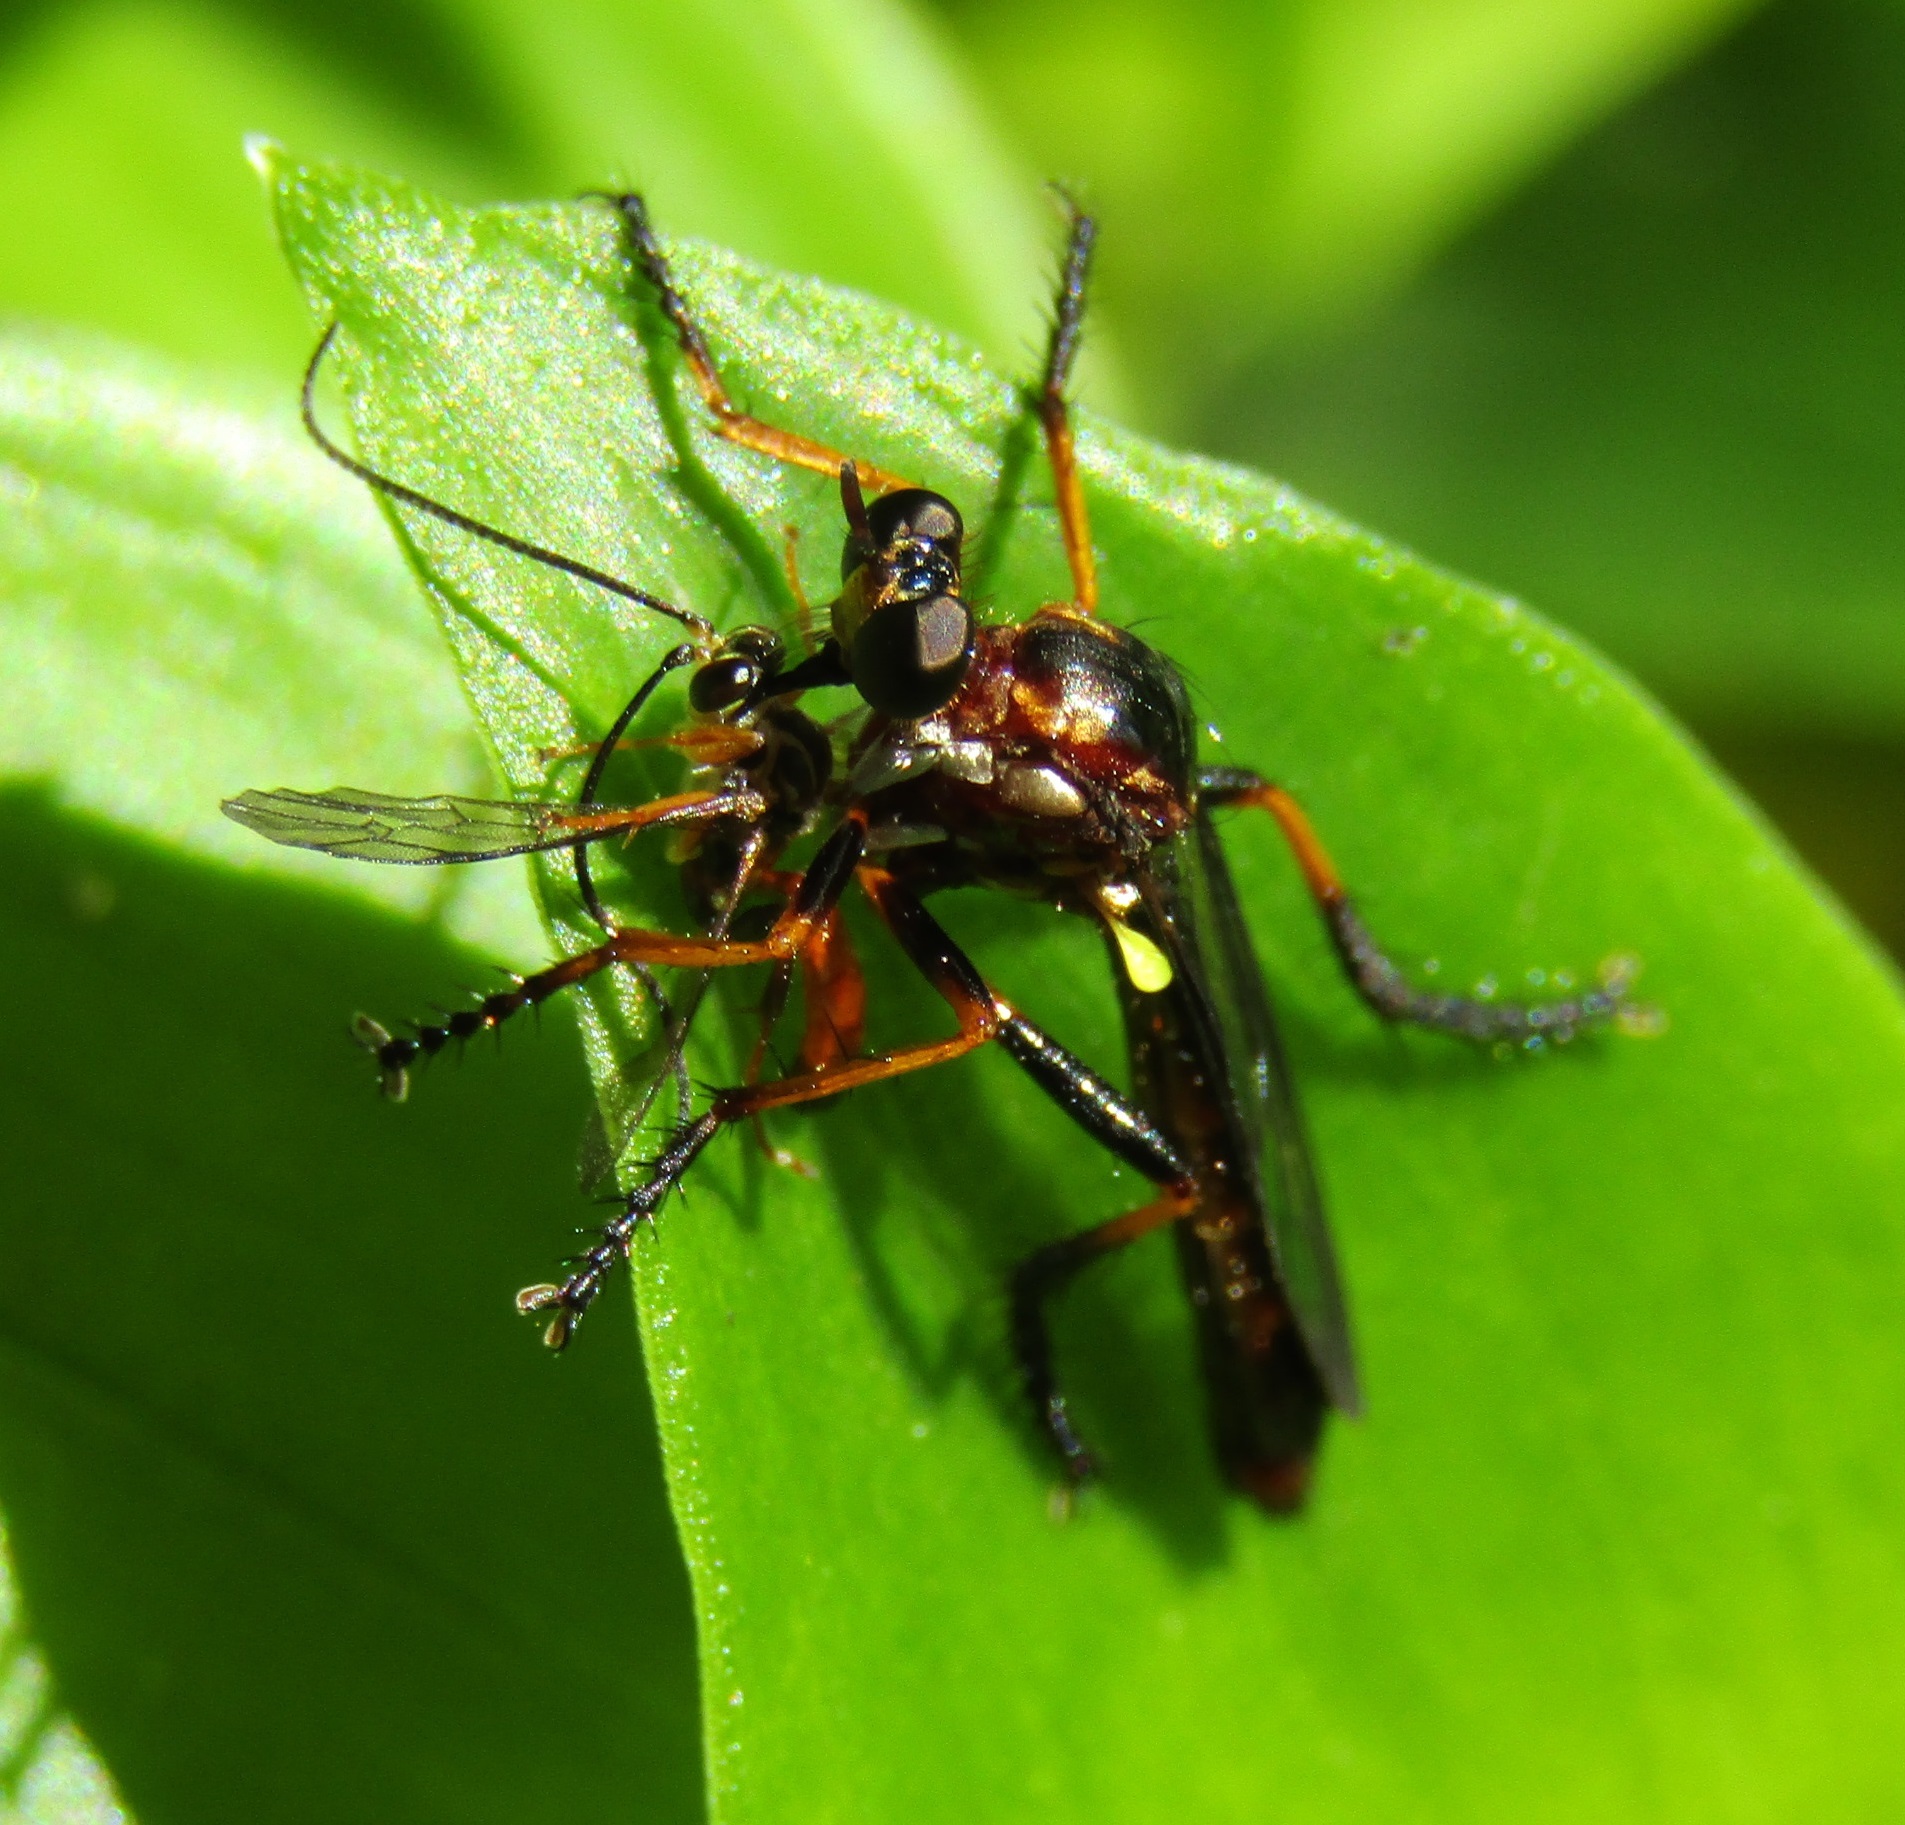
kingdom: Animalia
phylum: Arthropoda
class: Insecta
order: Diptera
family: Asilidae
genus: Saropogon
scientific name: Saropogon fascipes
